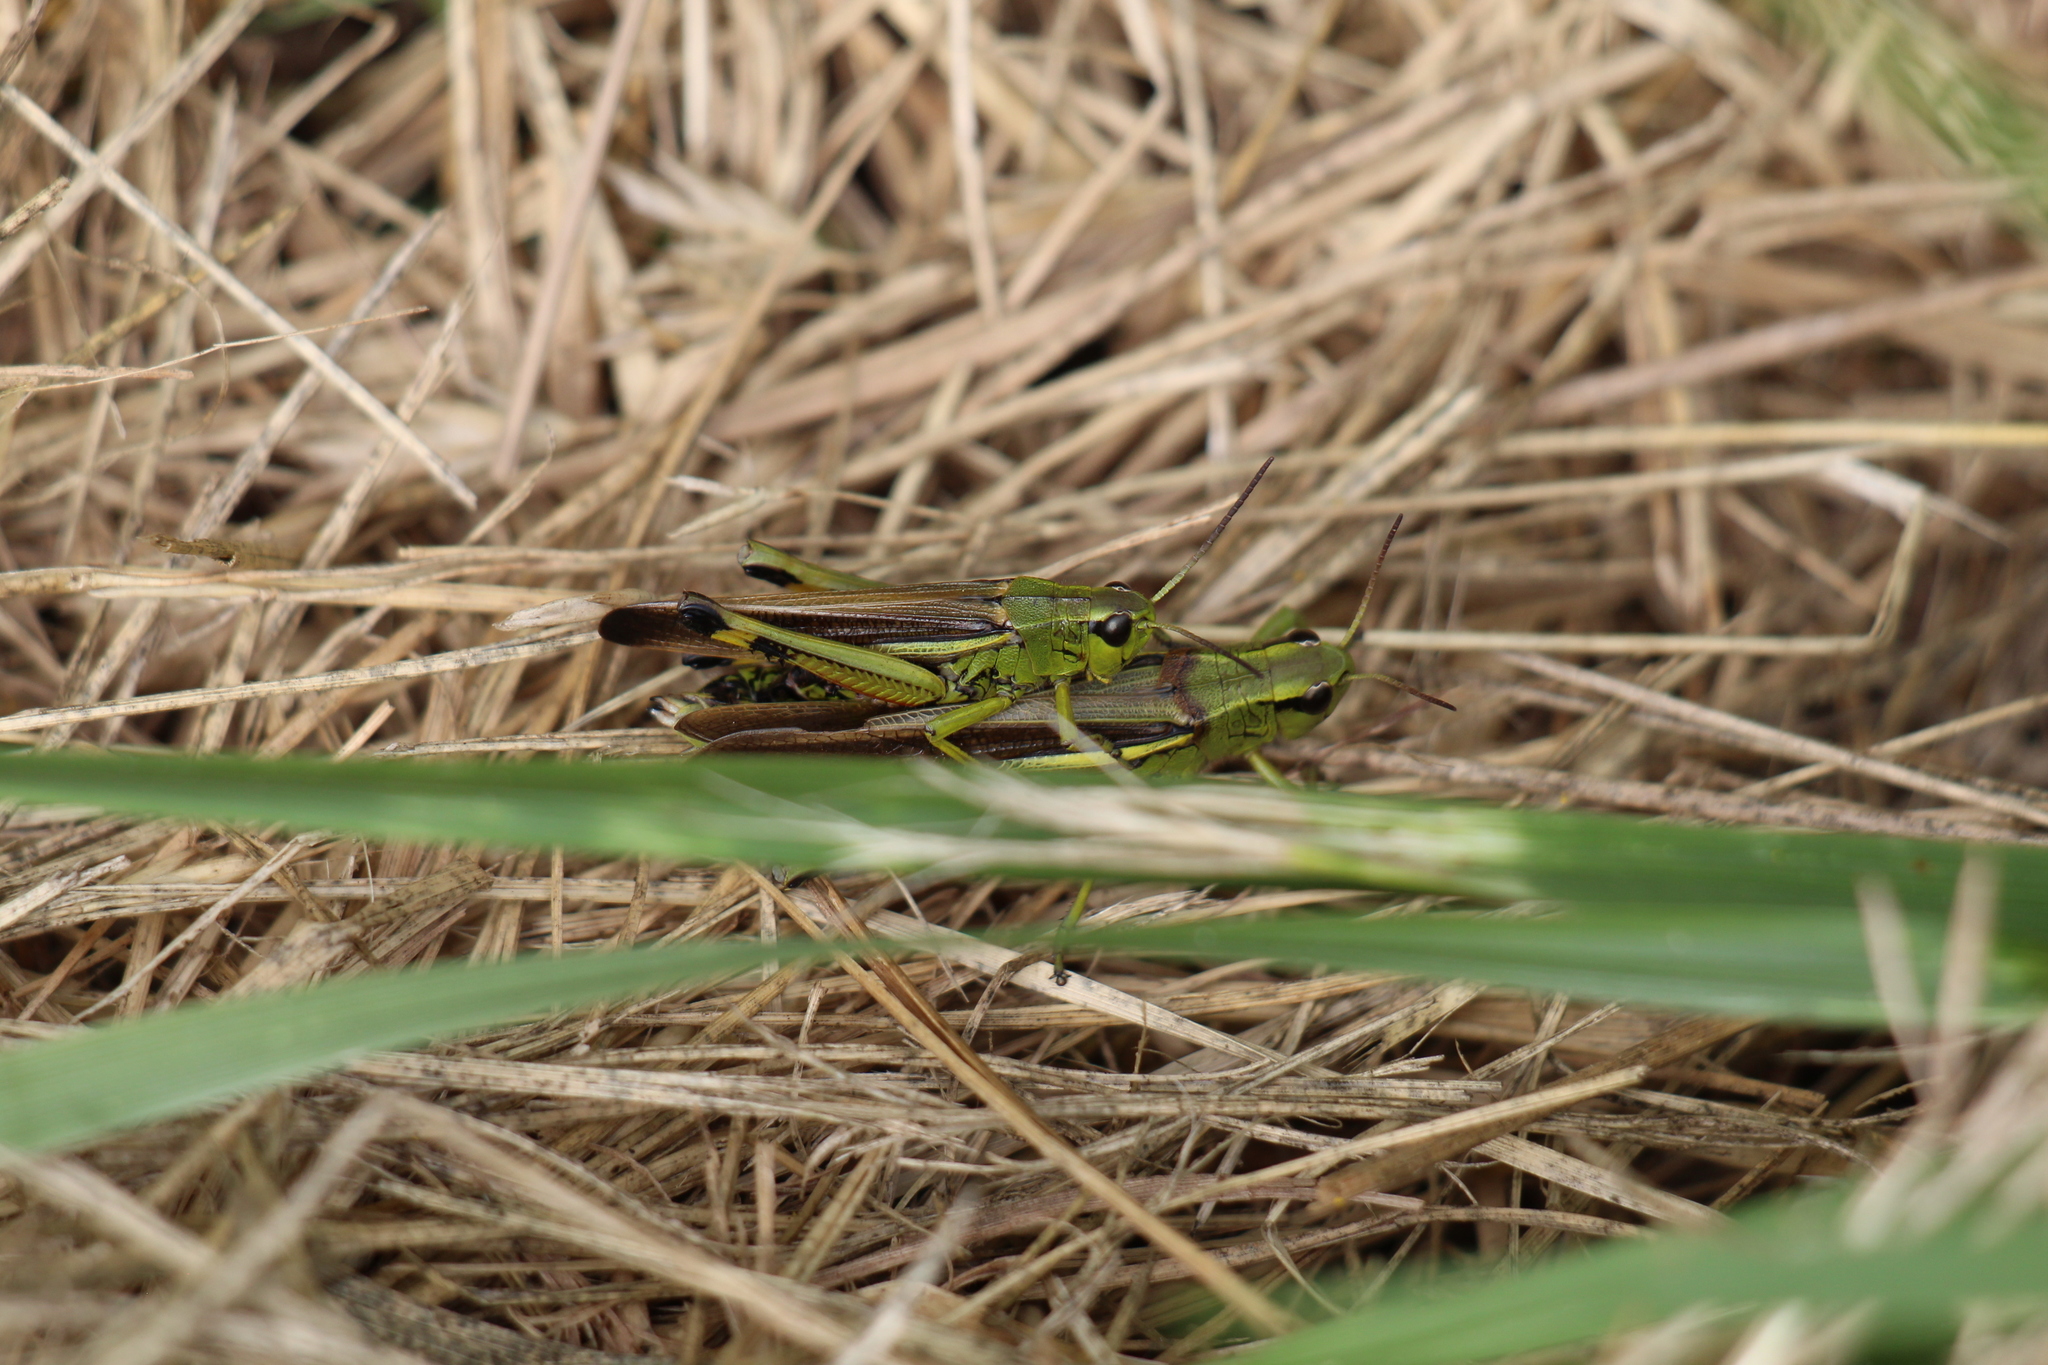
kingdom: Animalia
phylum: Arthropoda
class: Insecta
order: Orthoptera
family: Acrididae
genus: Stethophyma
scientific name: Stethophyma grossum
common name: Large marsh grasshopper
